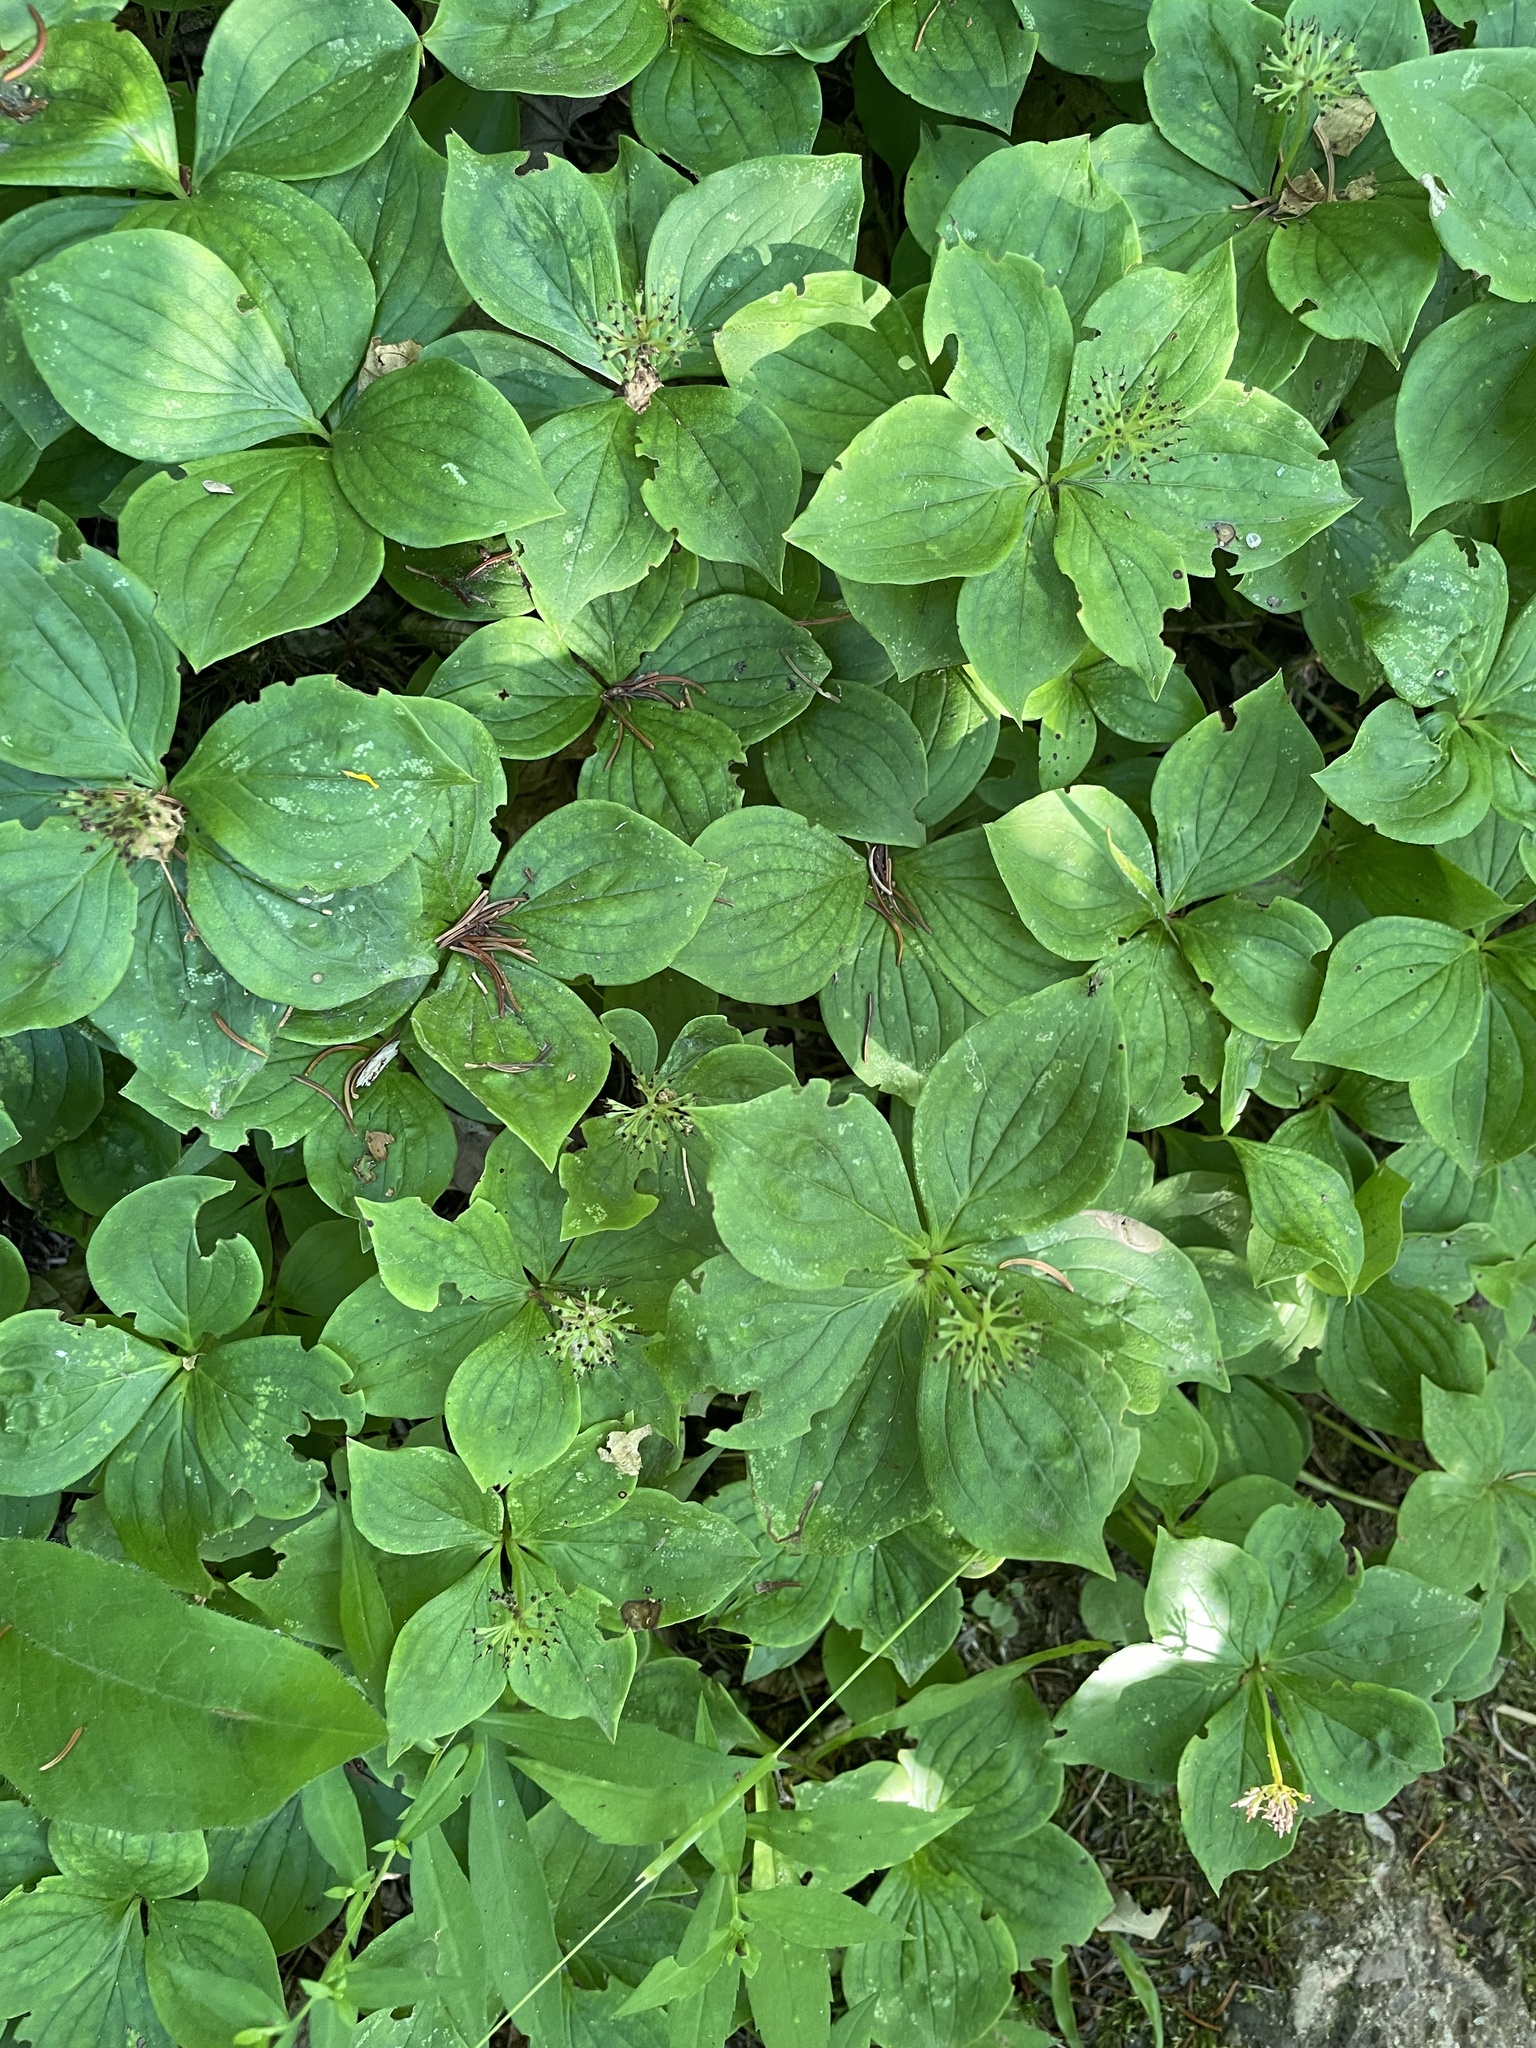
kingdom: Plantae
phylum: Tracheophyta
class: Magnoliopsida
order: Cornales
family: Cornaceae
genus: Cornus
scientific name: Cornus canadensis
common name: Creeping dogwood
